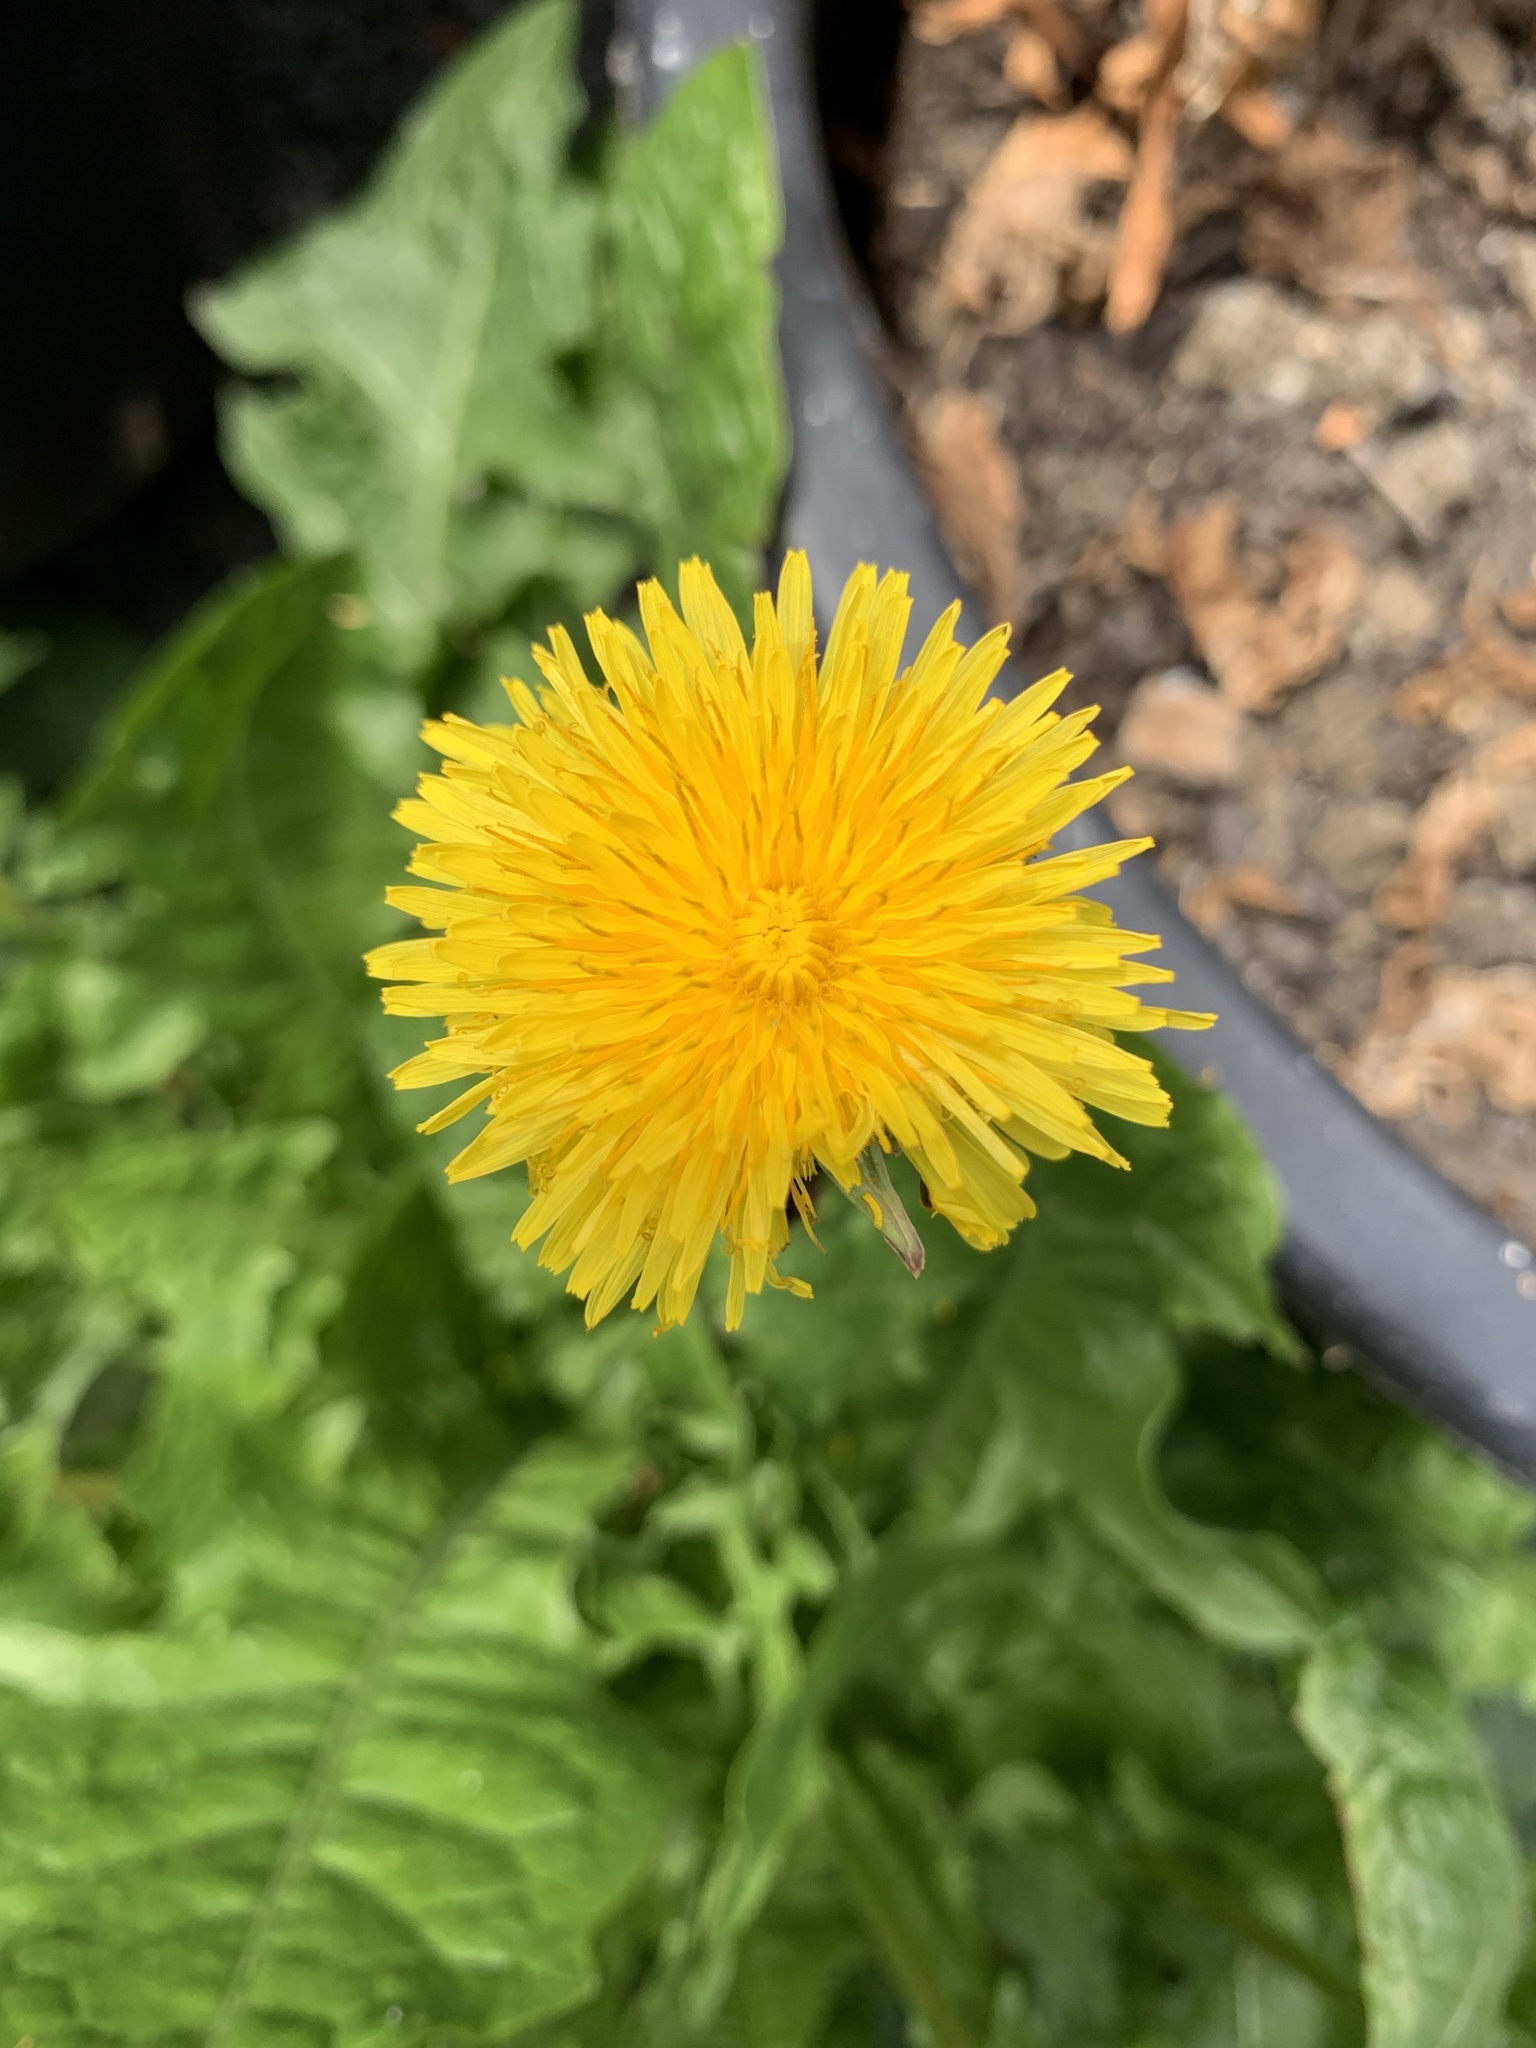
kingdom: Plantae
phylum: Tracheophyta
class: Magnoliopsida
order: Asterales
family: Asteraceae
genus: Taraxacum
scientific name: Taraxacum officinale
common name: Common dandelion
